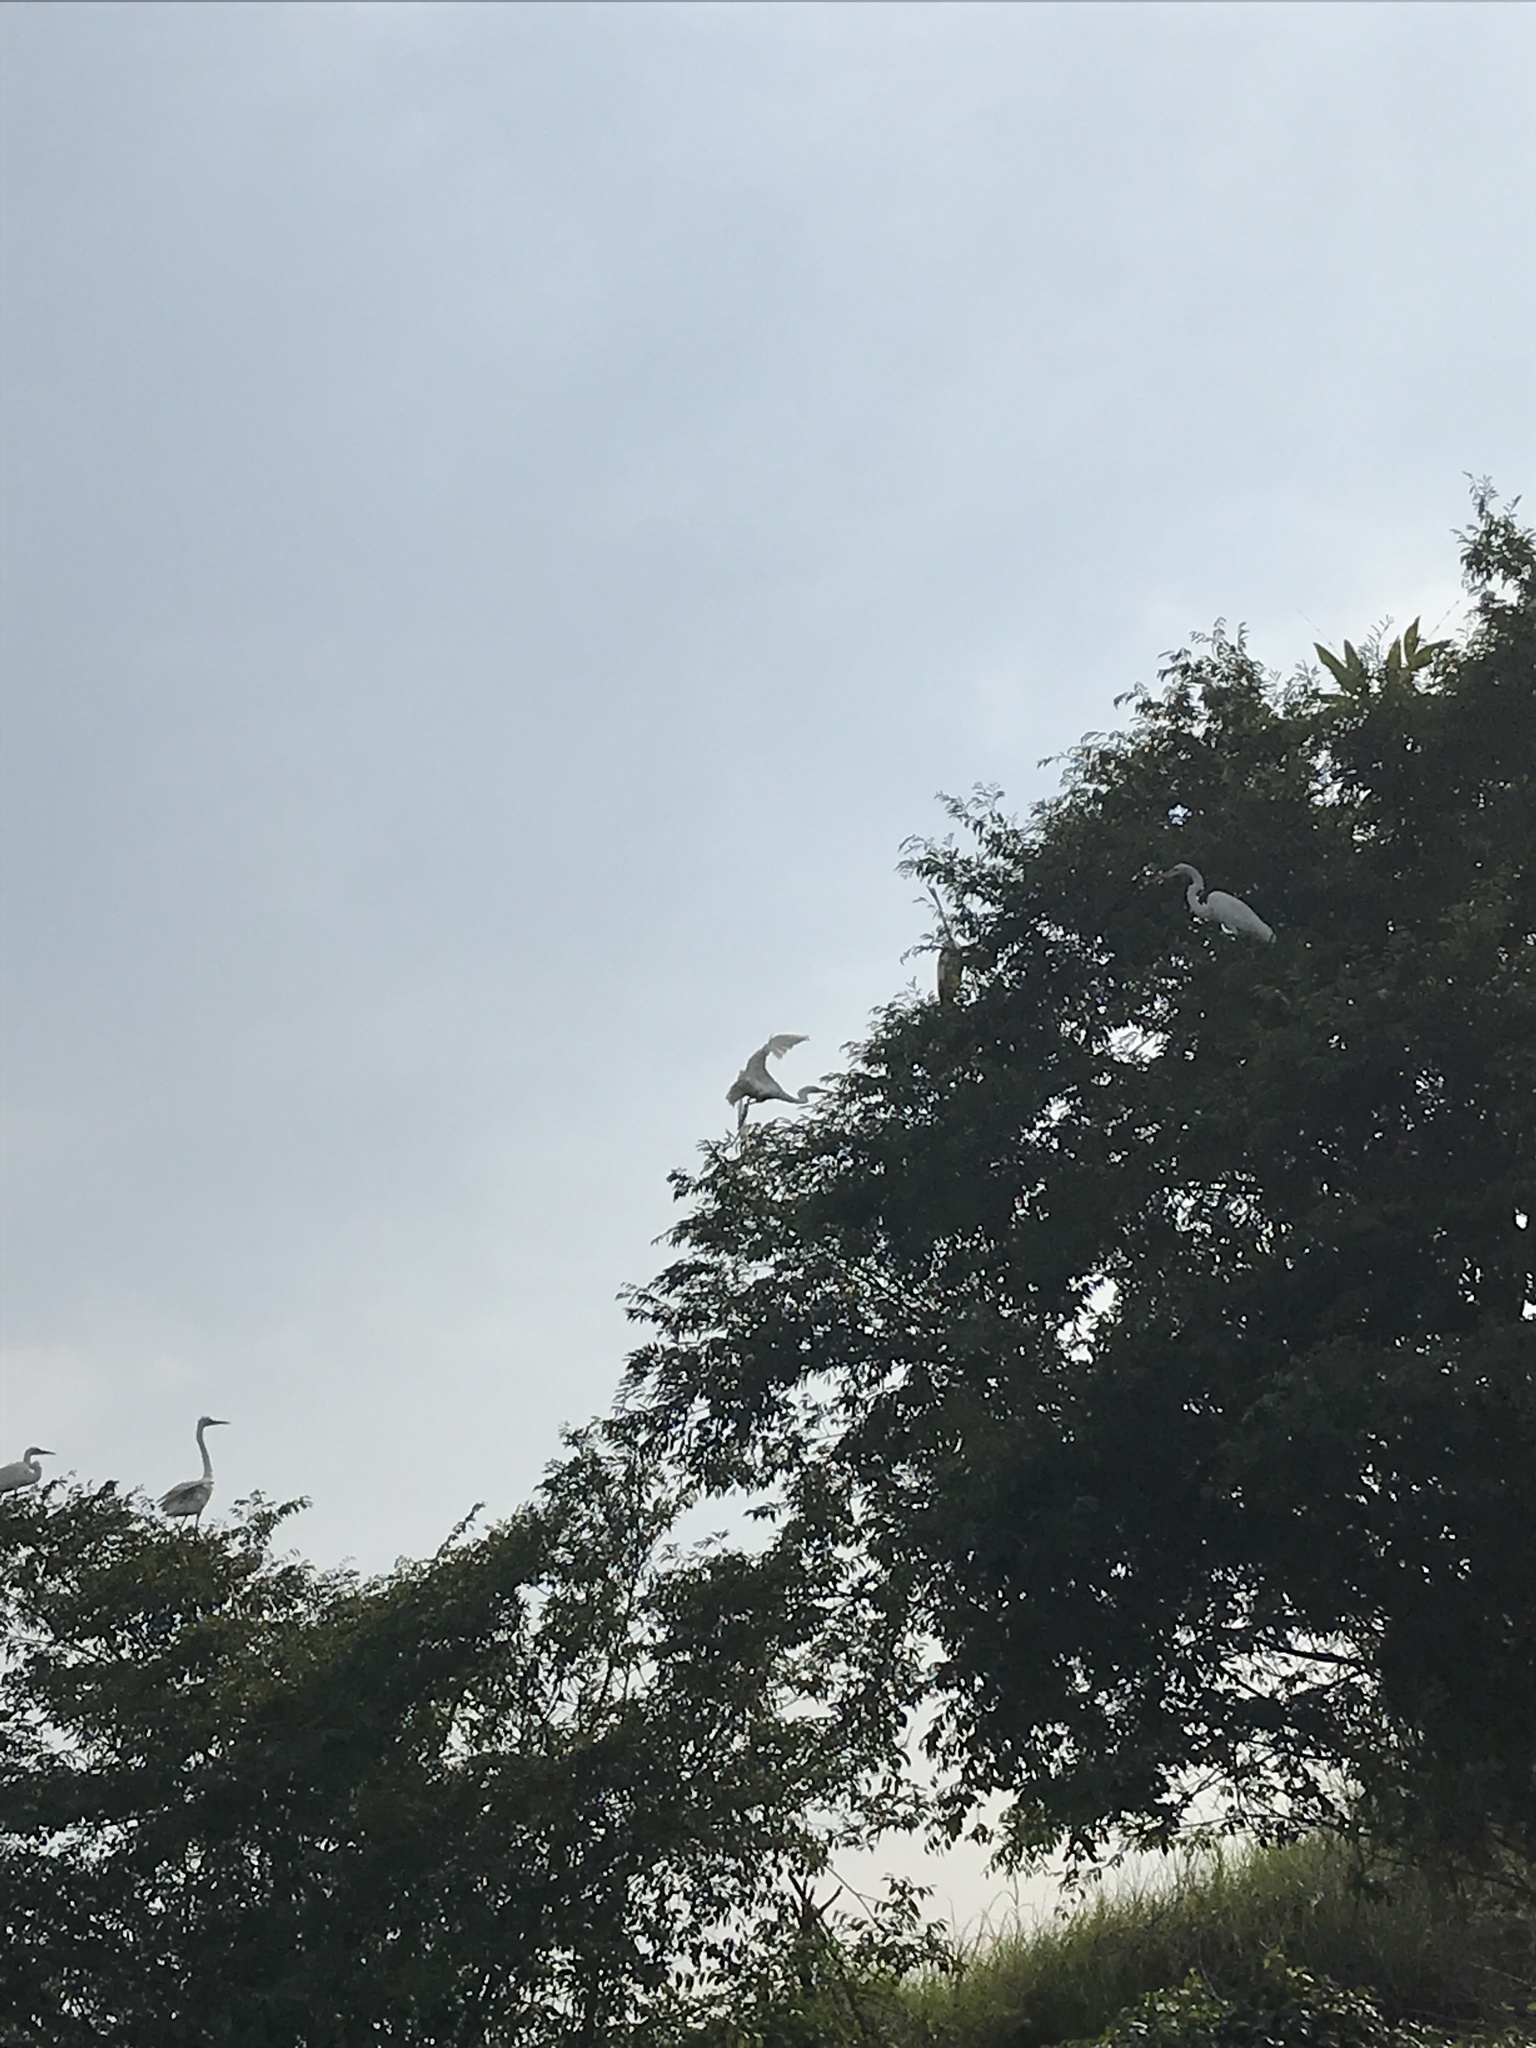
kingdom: Animalia
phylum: Chordata
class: Aves
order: Pelecaniformes
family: Ardeidae
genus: Ardea
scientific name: Ardea alba
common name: Great egret
